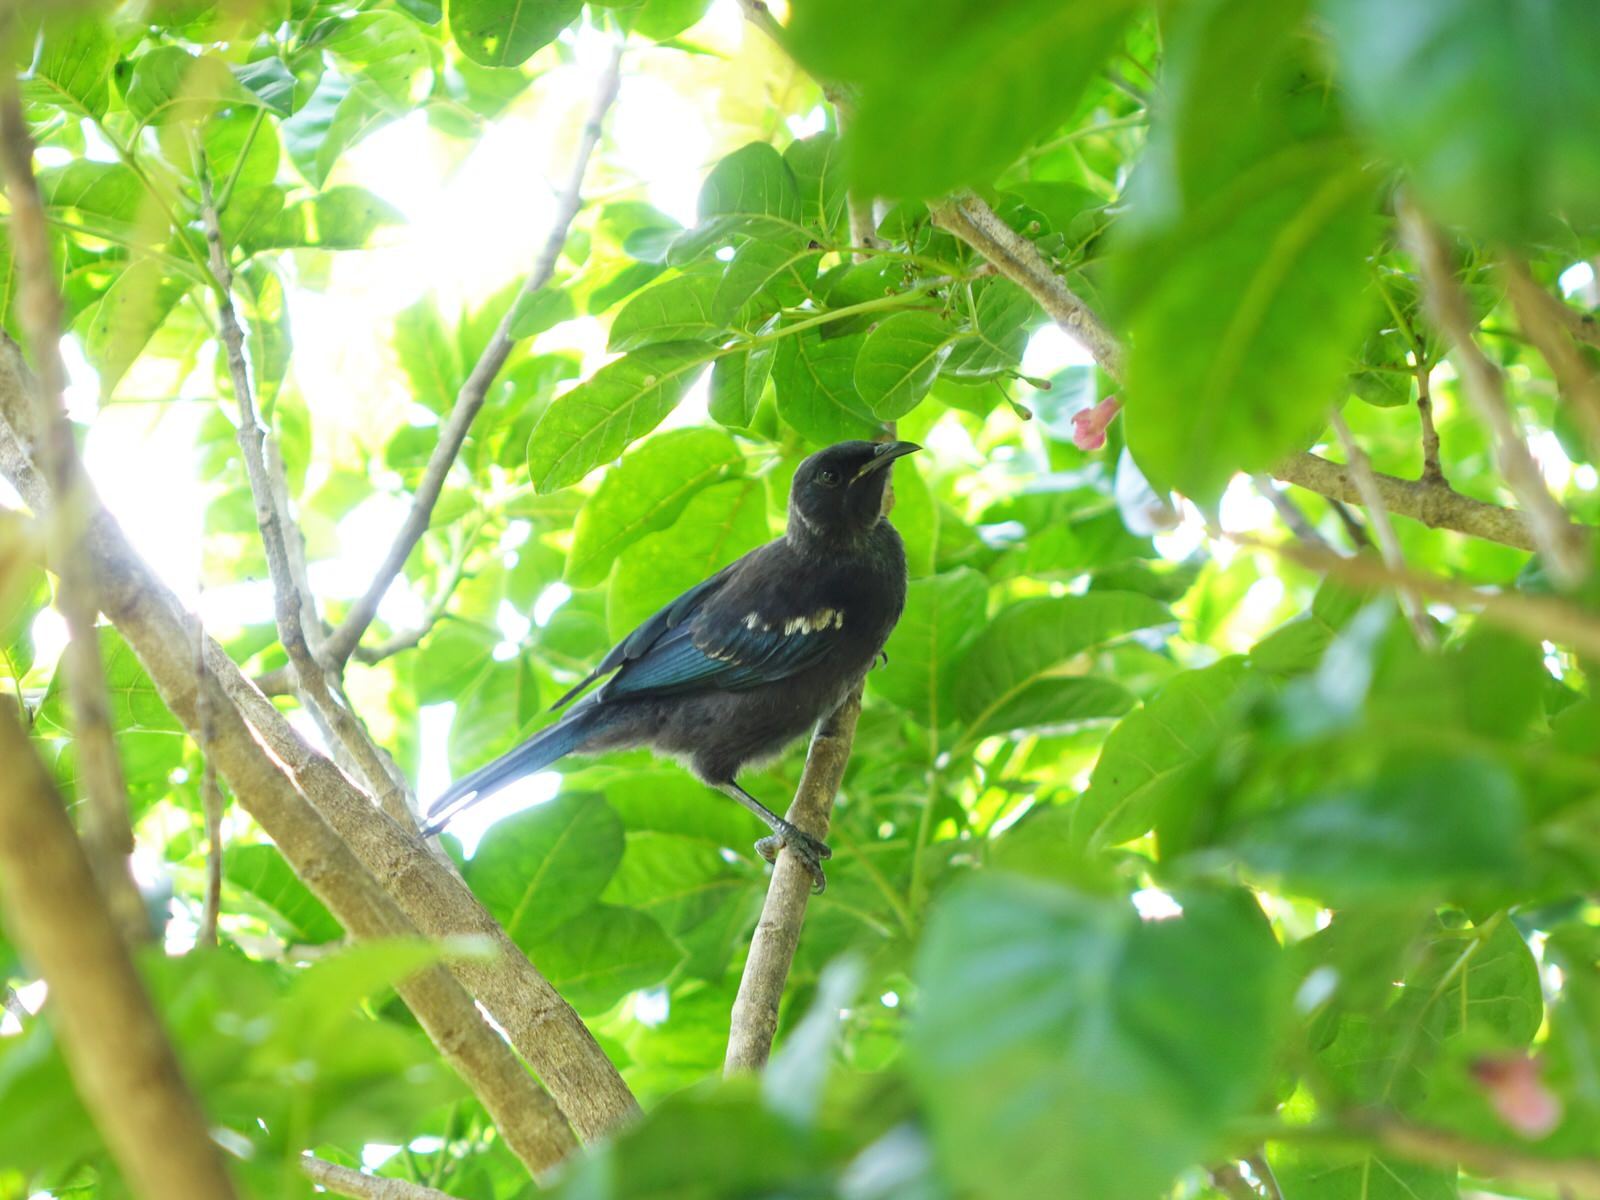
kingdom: Animalia
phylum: Chordata
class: Aves
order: Passeriformes
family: Meliphagidae
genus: Prosthemadera
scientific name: Prosthemadera novaeseelandiae
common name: Tui
